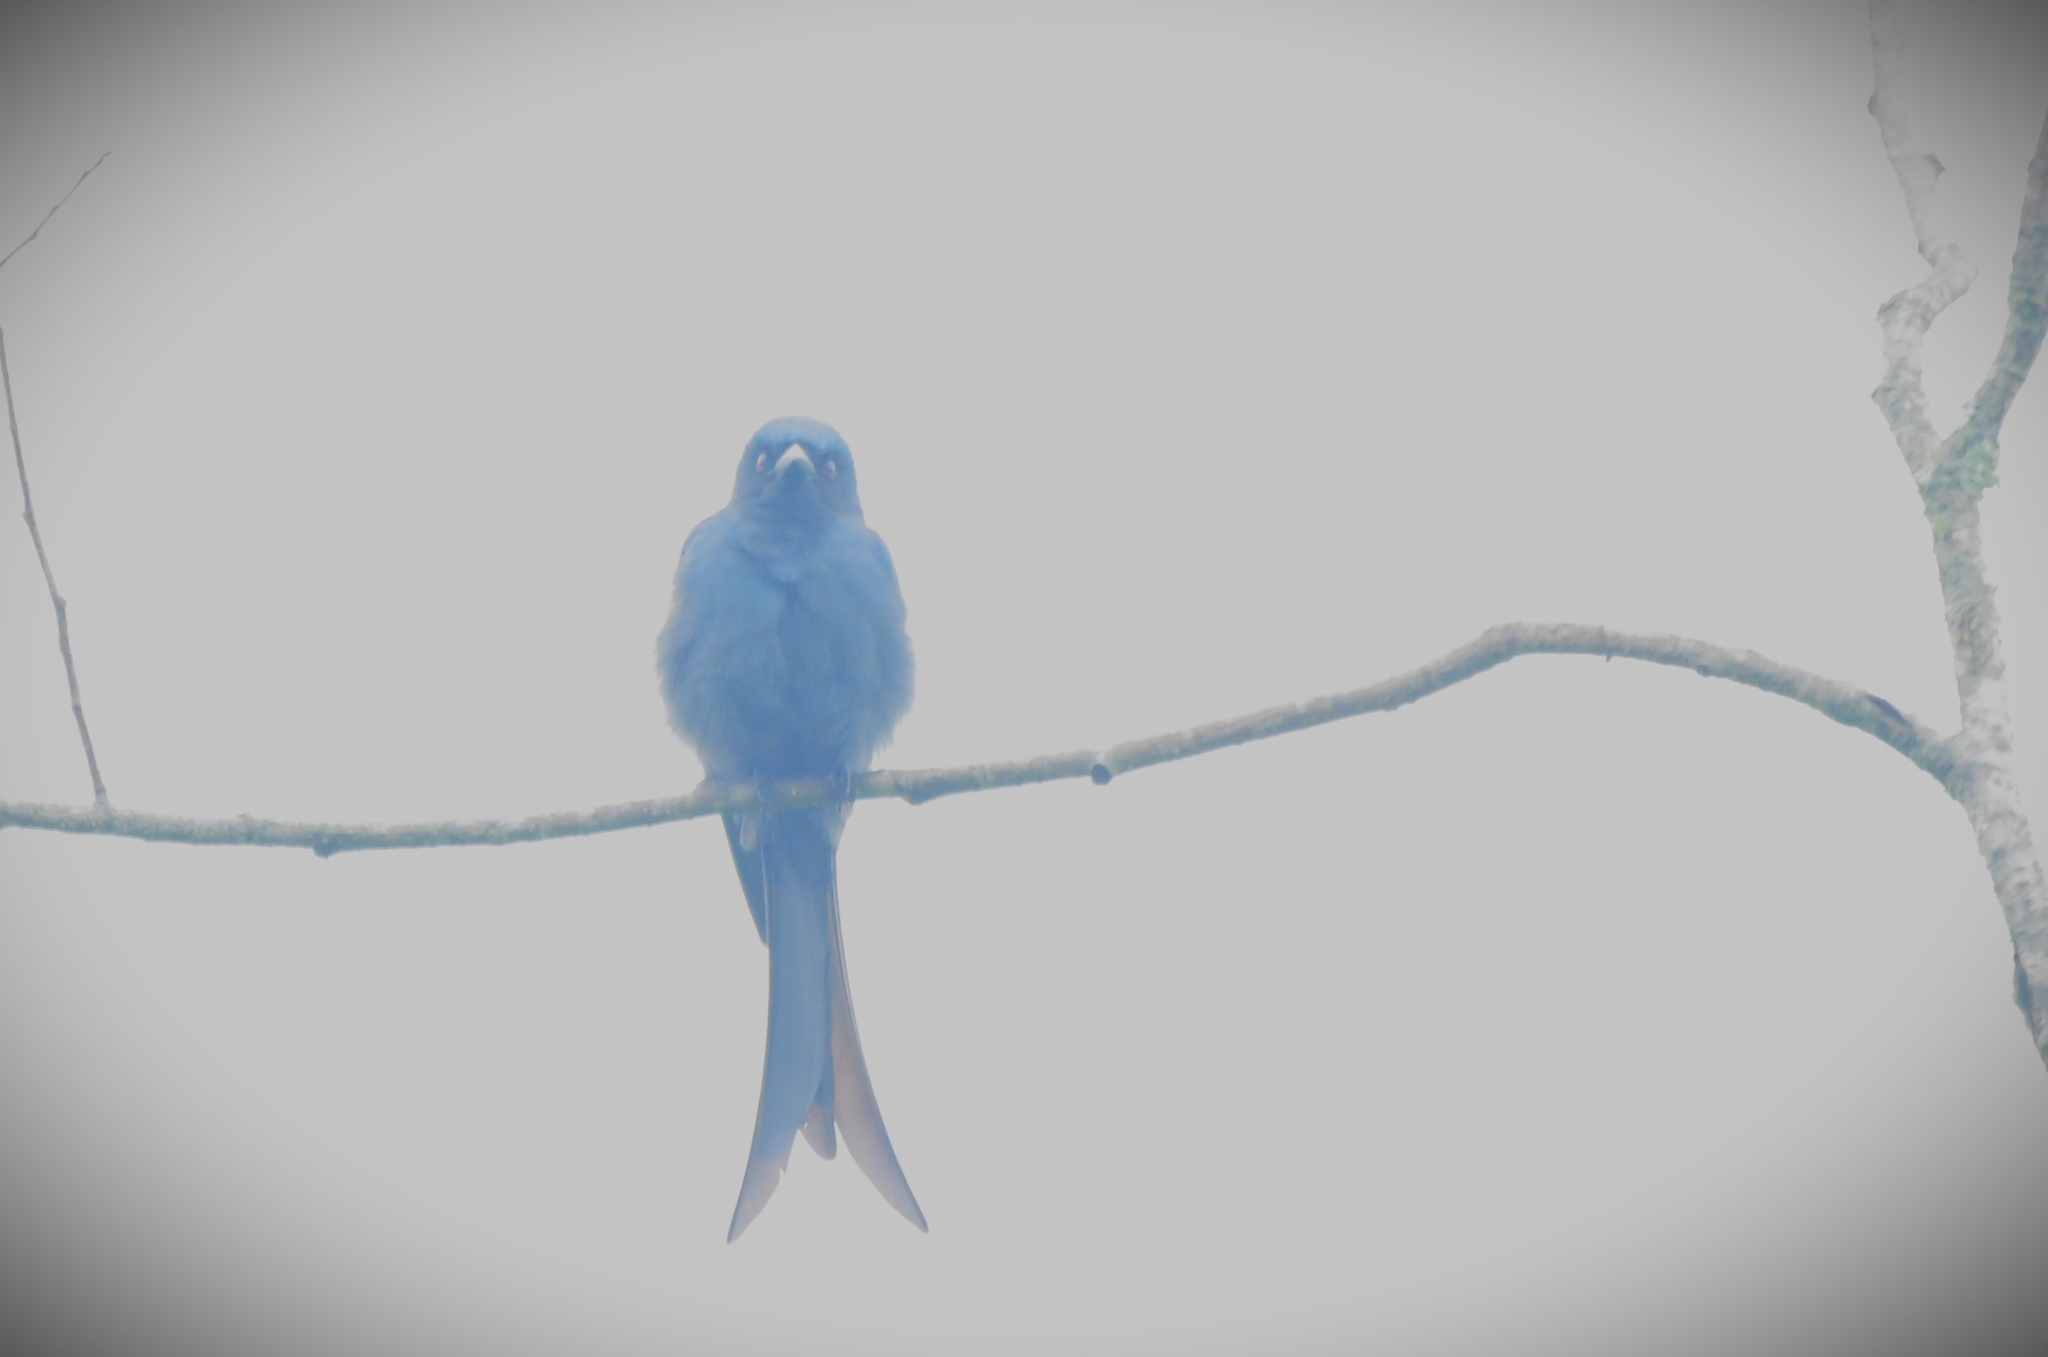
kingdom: Animalia
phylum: Chordata
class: Aves
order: Passeriformes
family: Dicruridae
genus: Dicrurus
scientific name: Dicrurus leucophaeus
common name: Ashy drongo
